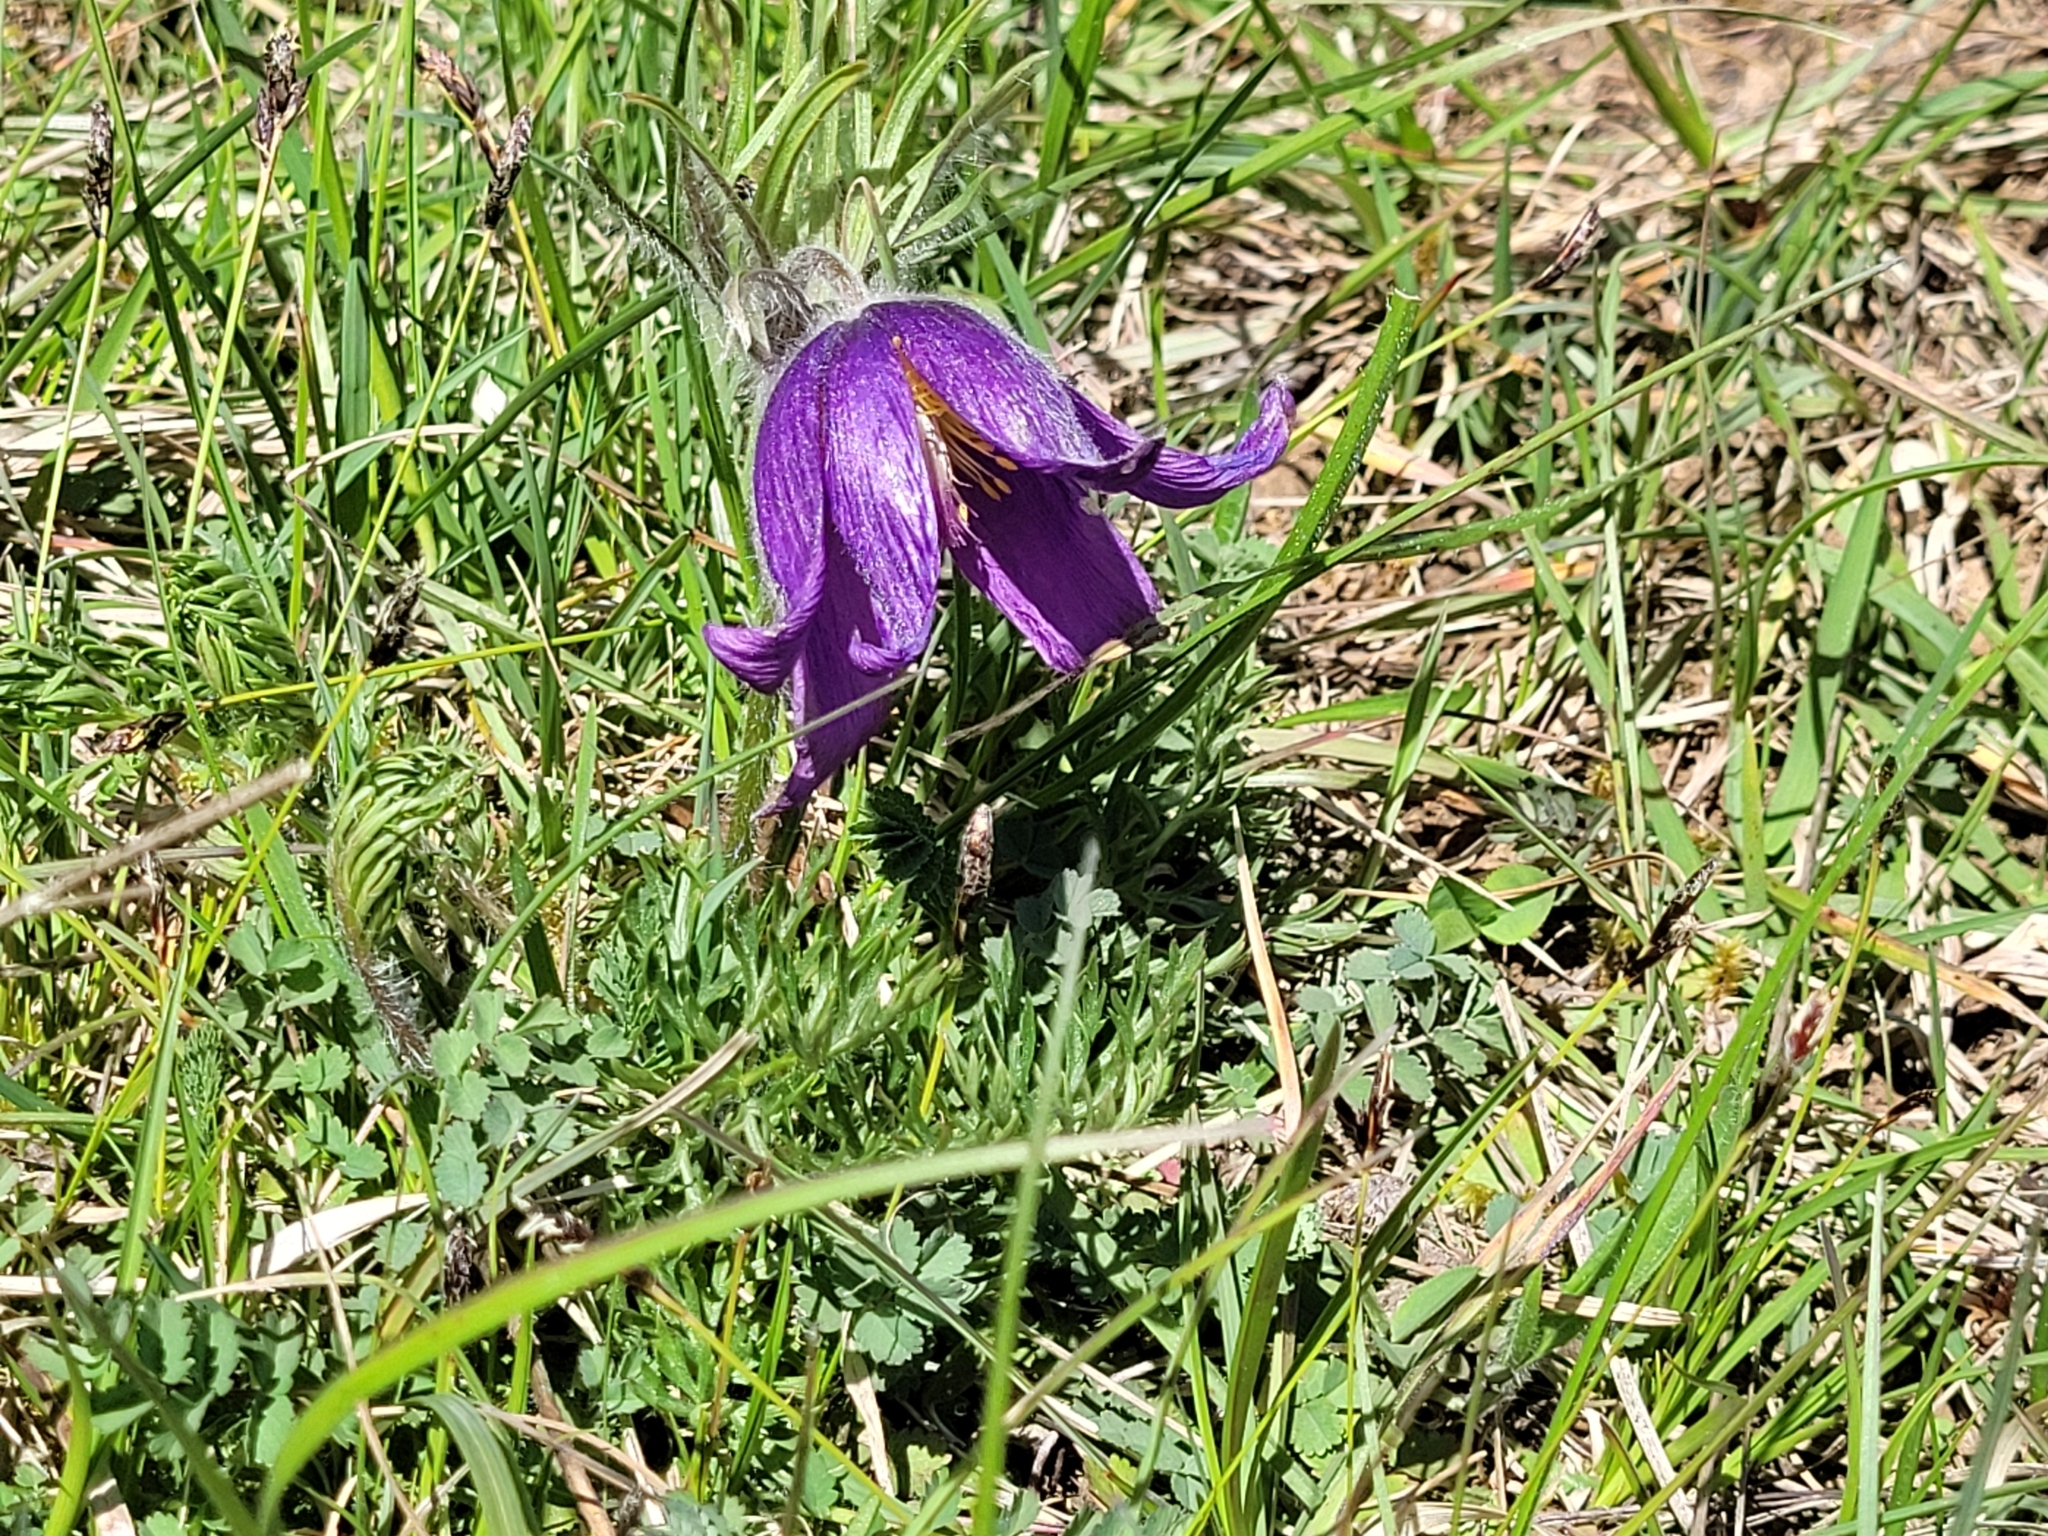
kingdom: Plantae
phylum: Tracheophyta
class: Magnoliopsida
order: Ranunculales
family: Ranunculaceae
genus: Pulsatilla
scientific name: Pulsatilla vulgaris
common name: Pasqueflower
